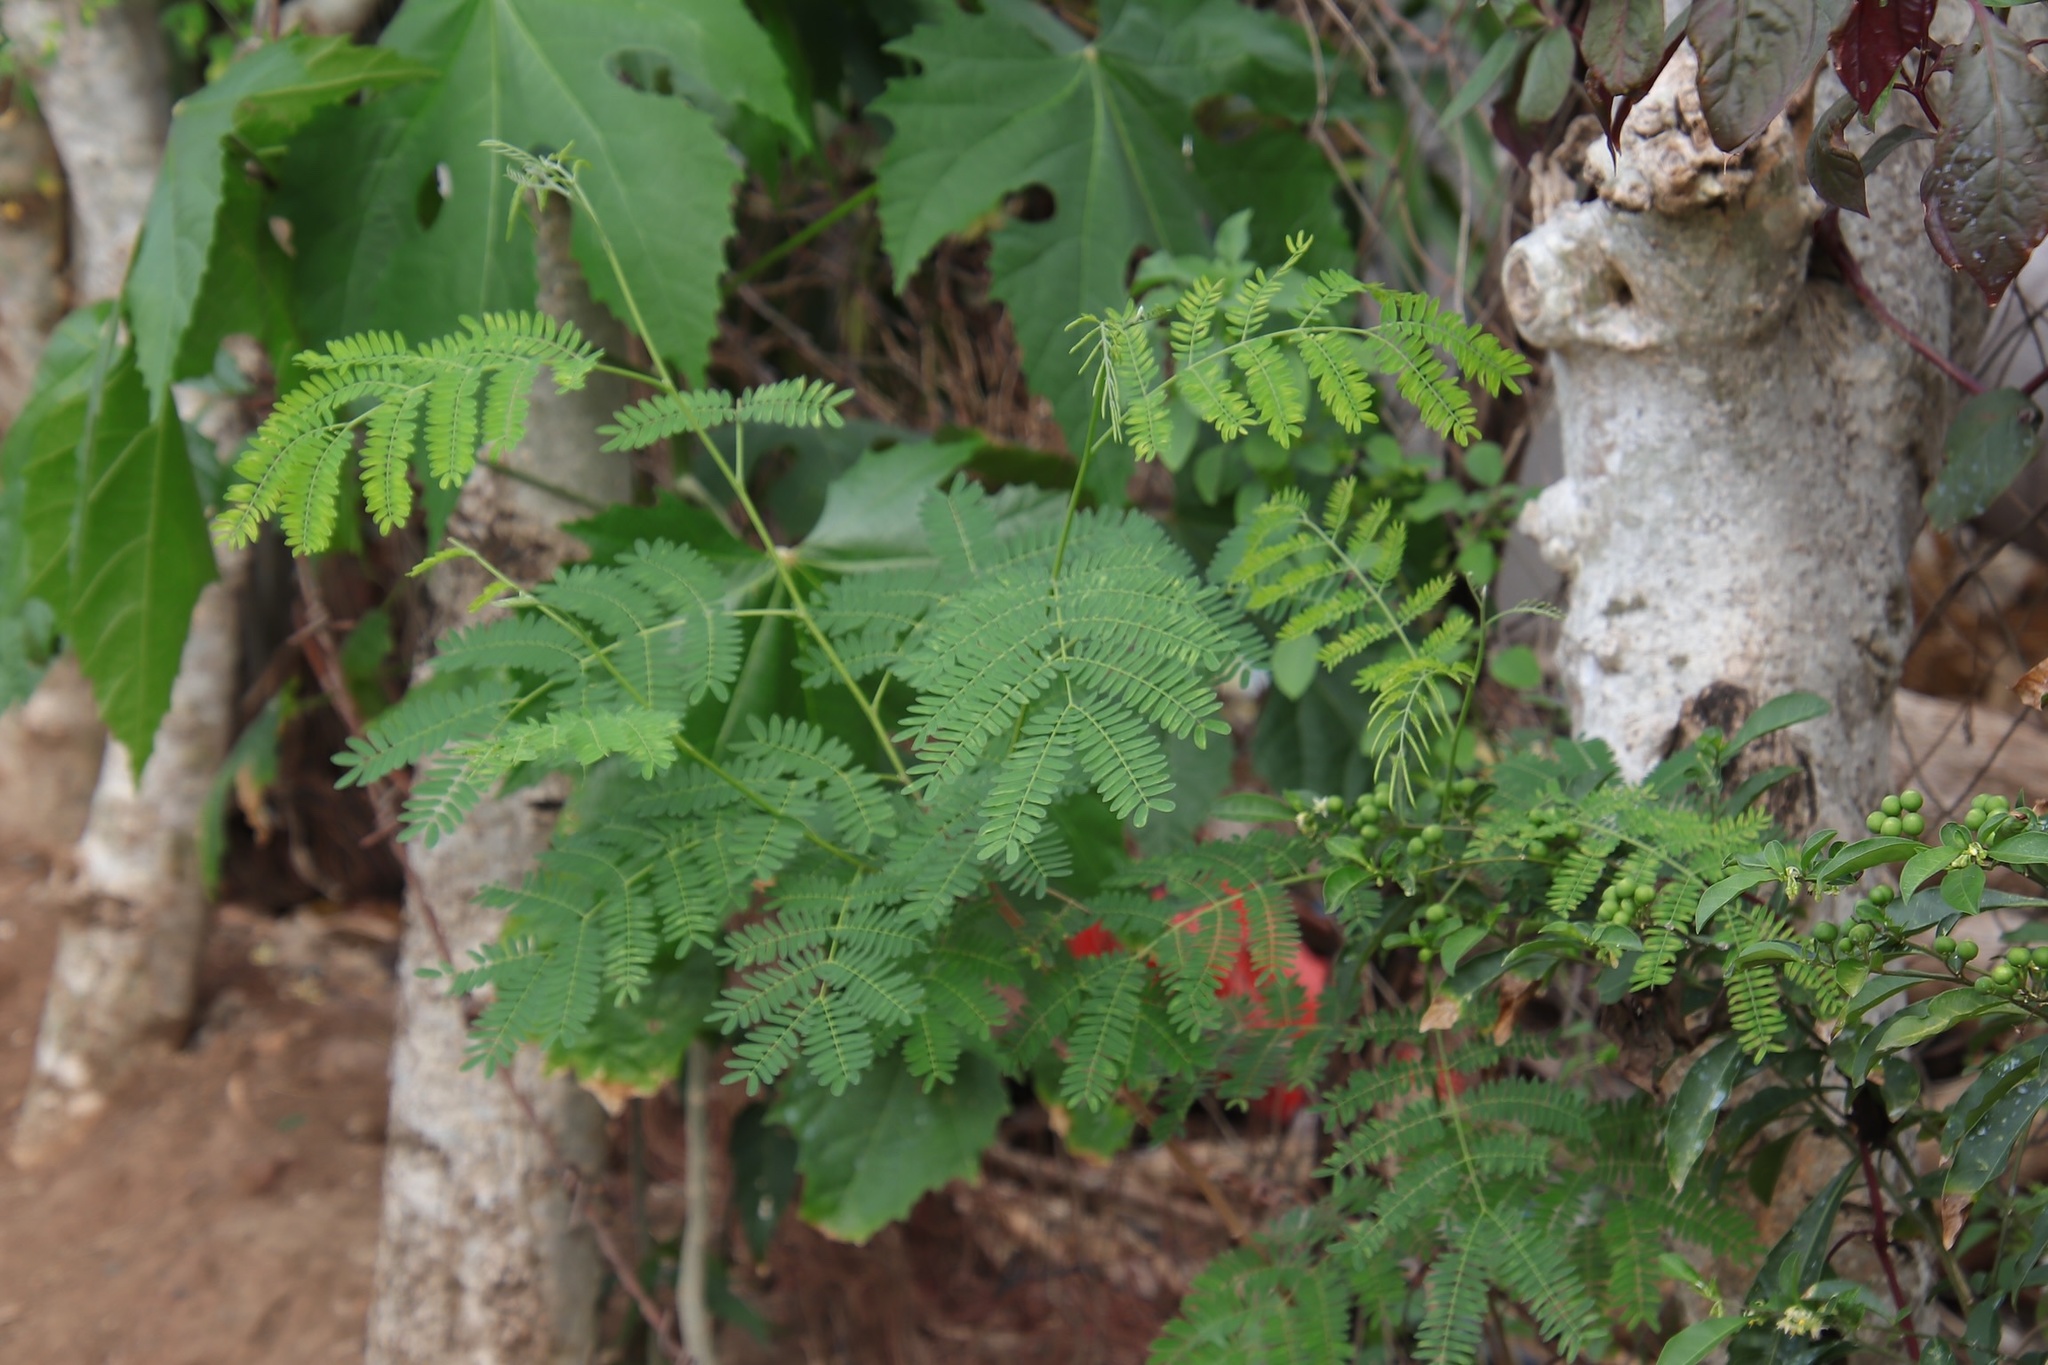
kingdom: Plantae
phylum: Tracheophyta
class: Magnoliopsida
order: Fabales
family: Fabaceae
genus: Leucaena
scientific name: Leucaena leucocephala
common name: White leadtree
